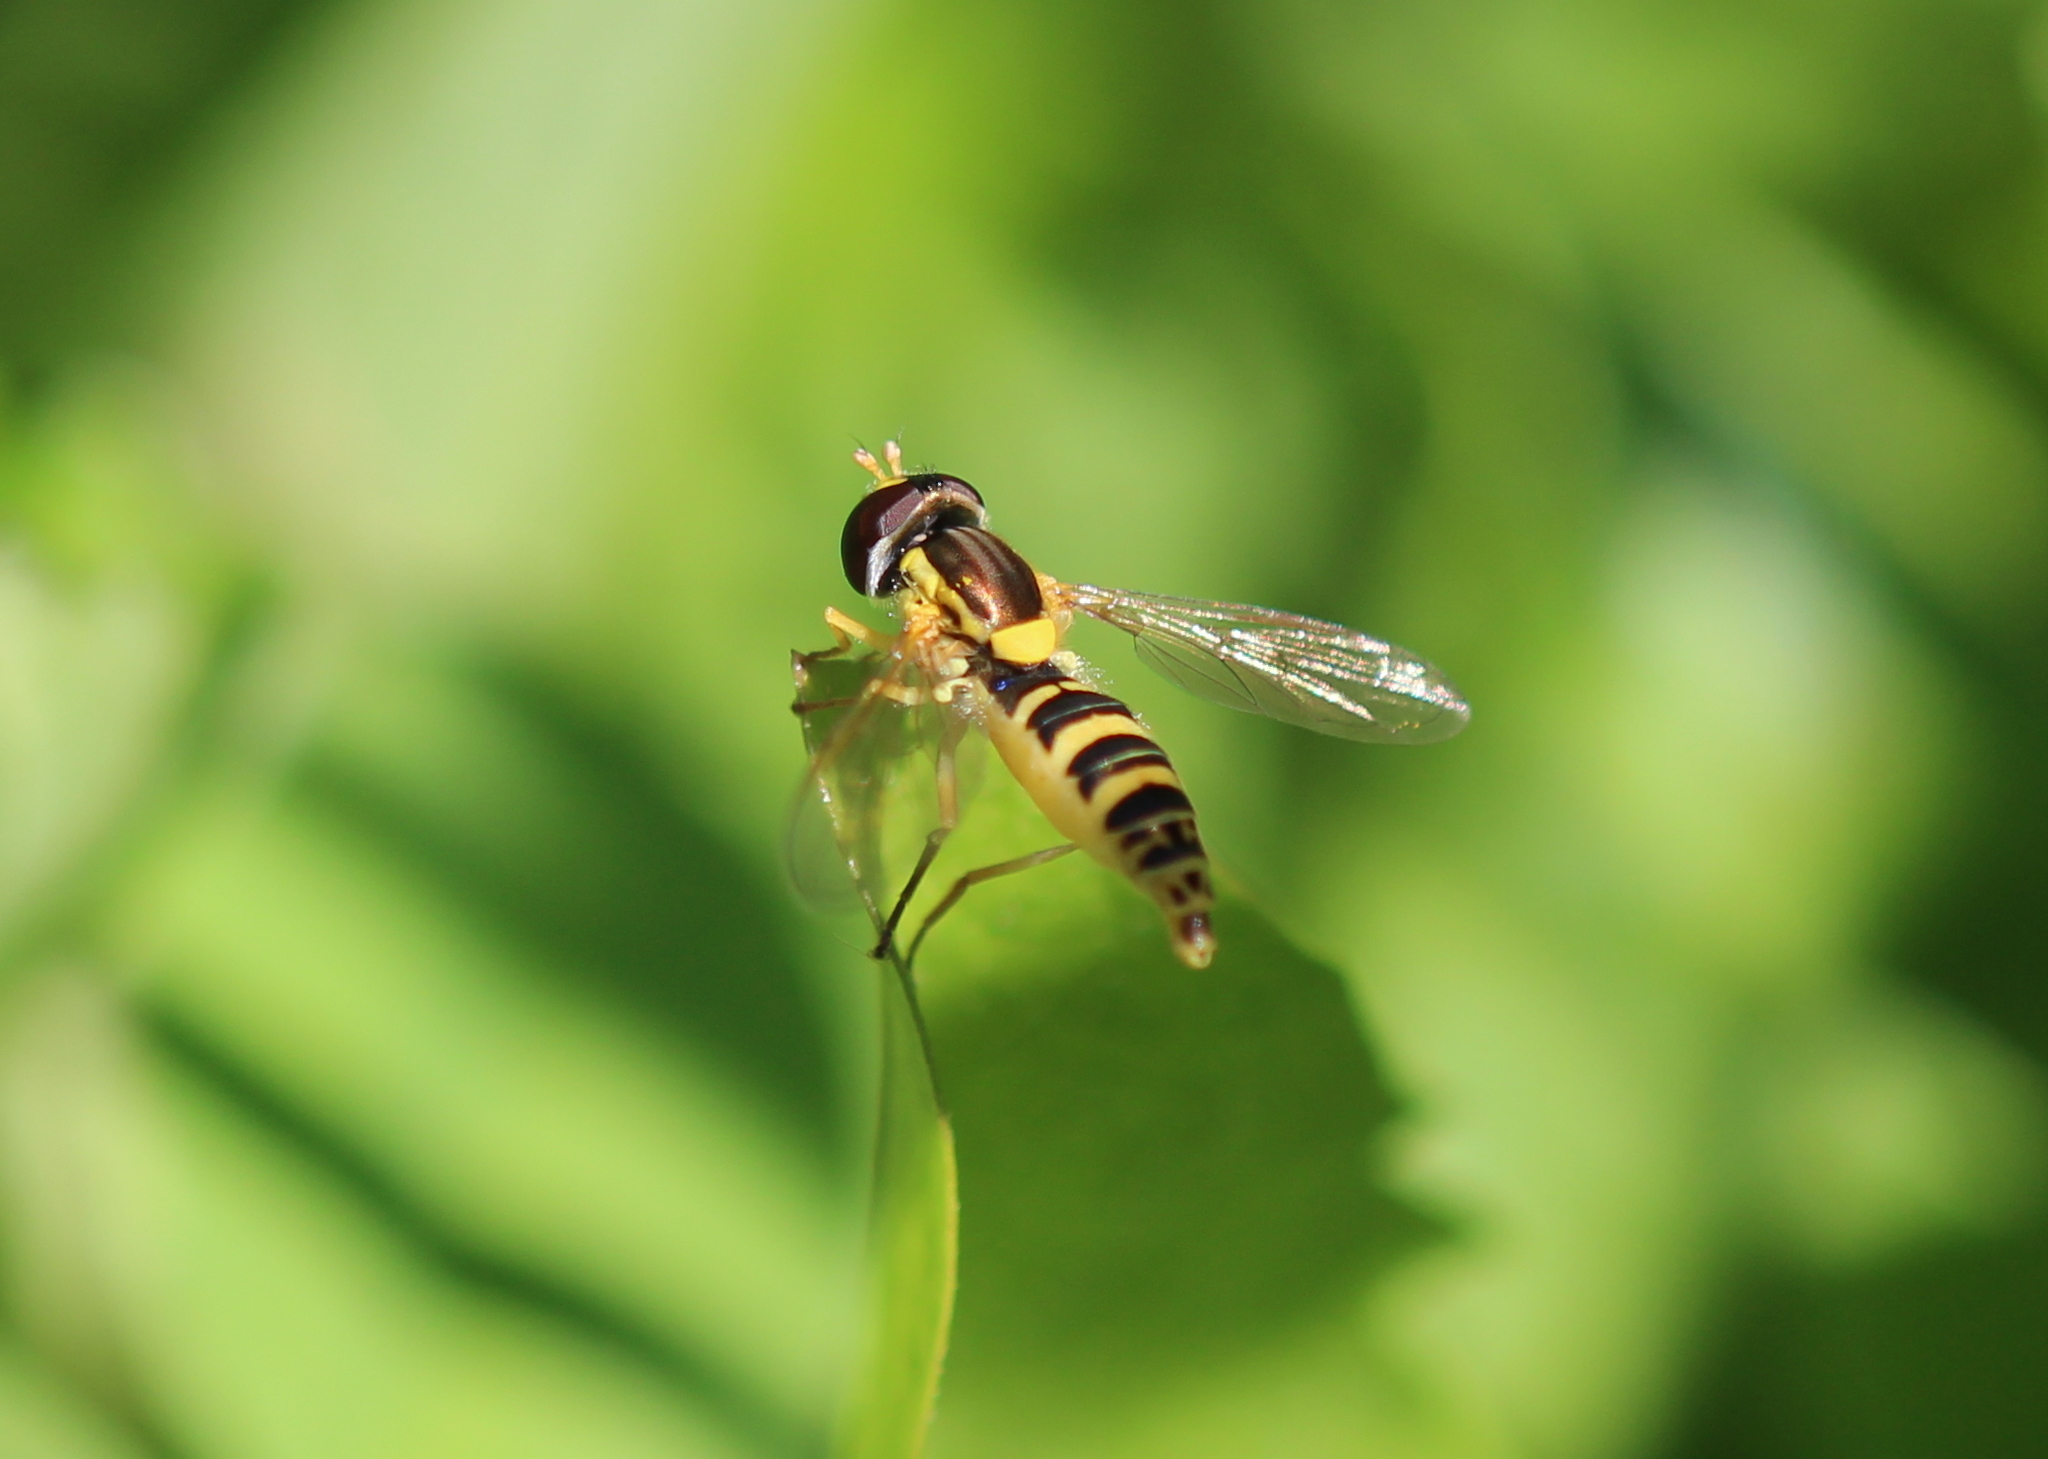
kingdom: Animalia
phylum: Arthropoda
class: Insecta
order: Diptera
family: Syrphidae
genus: Sphaerophoria
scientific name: Sphaerophoria
